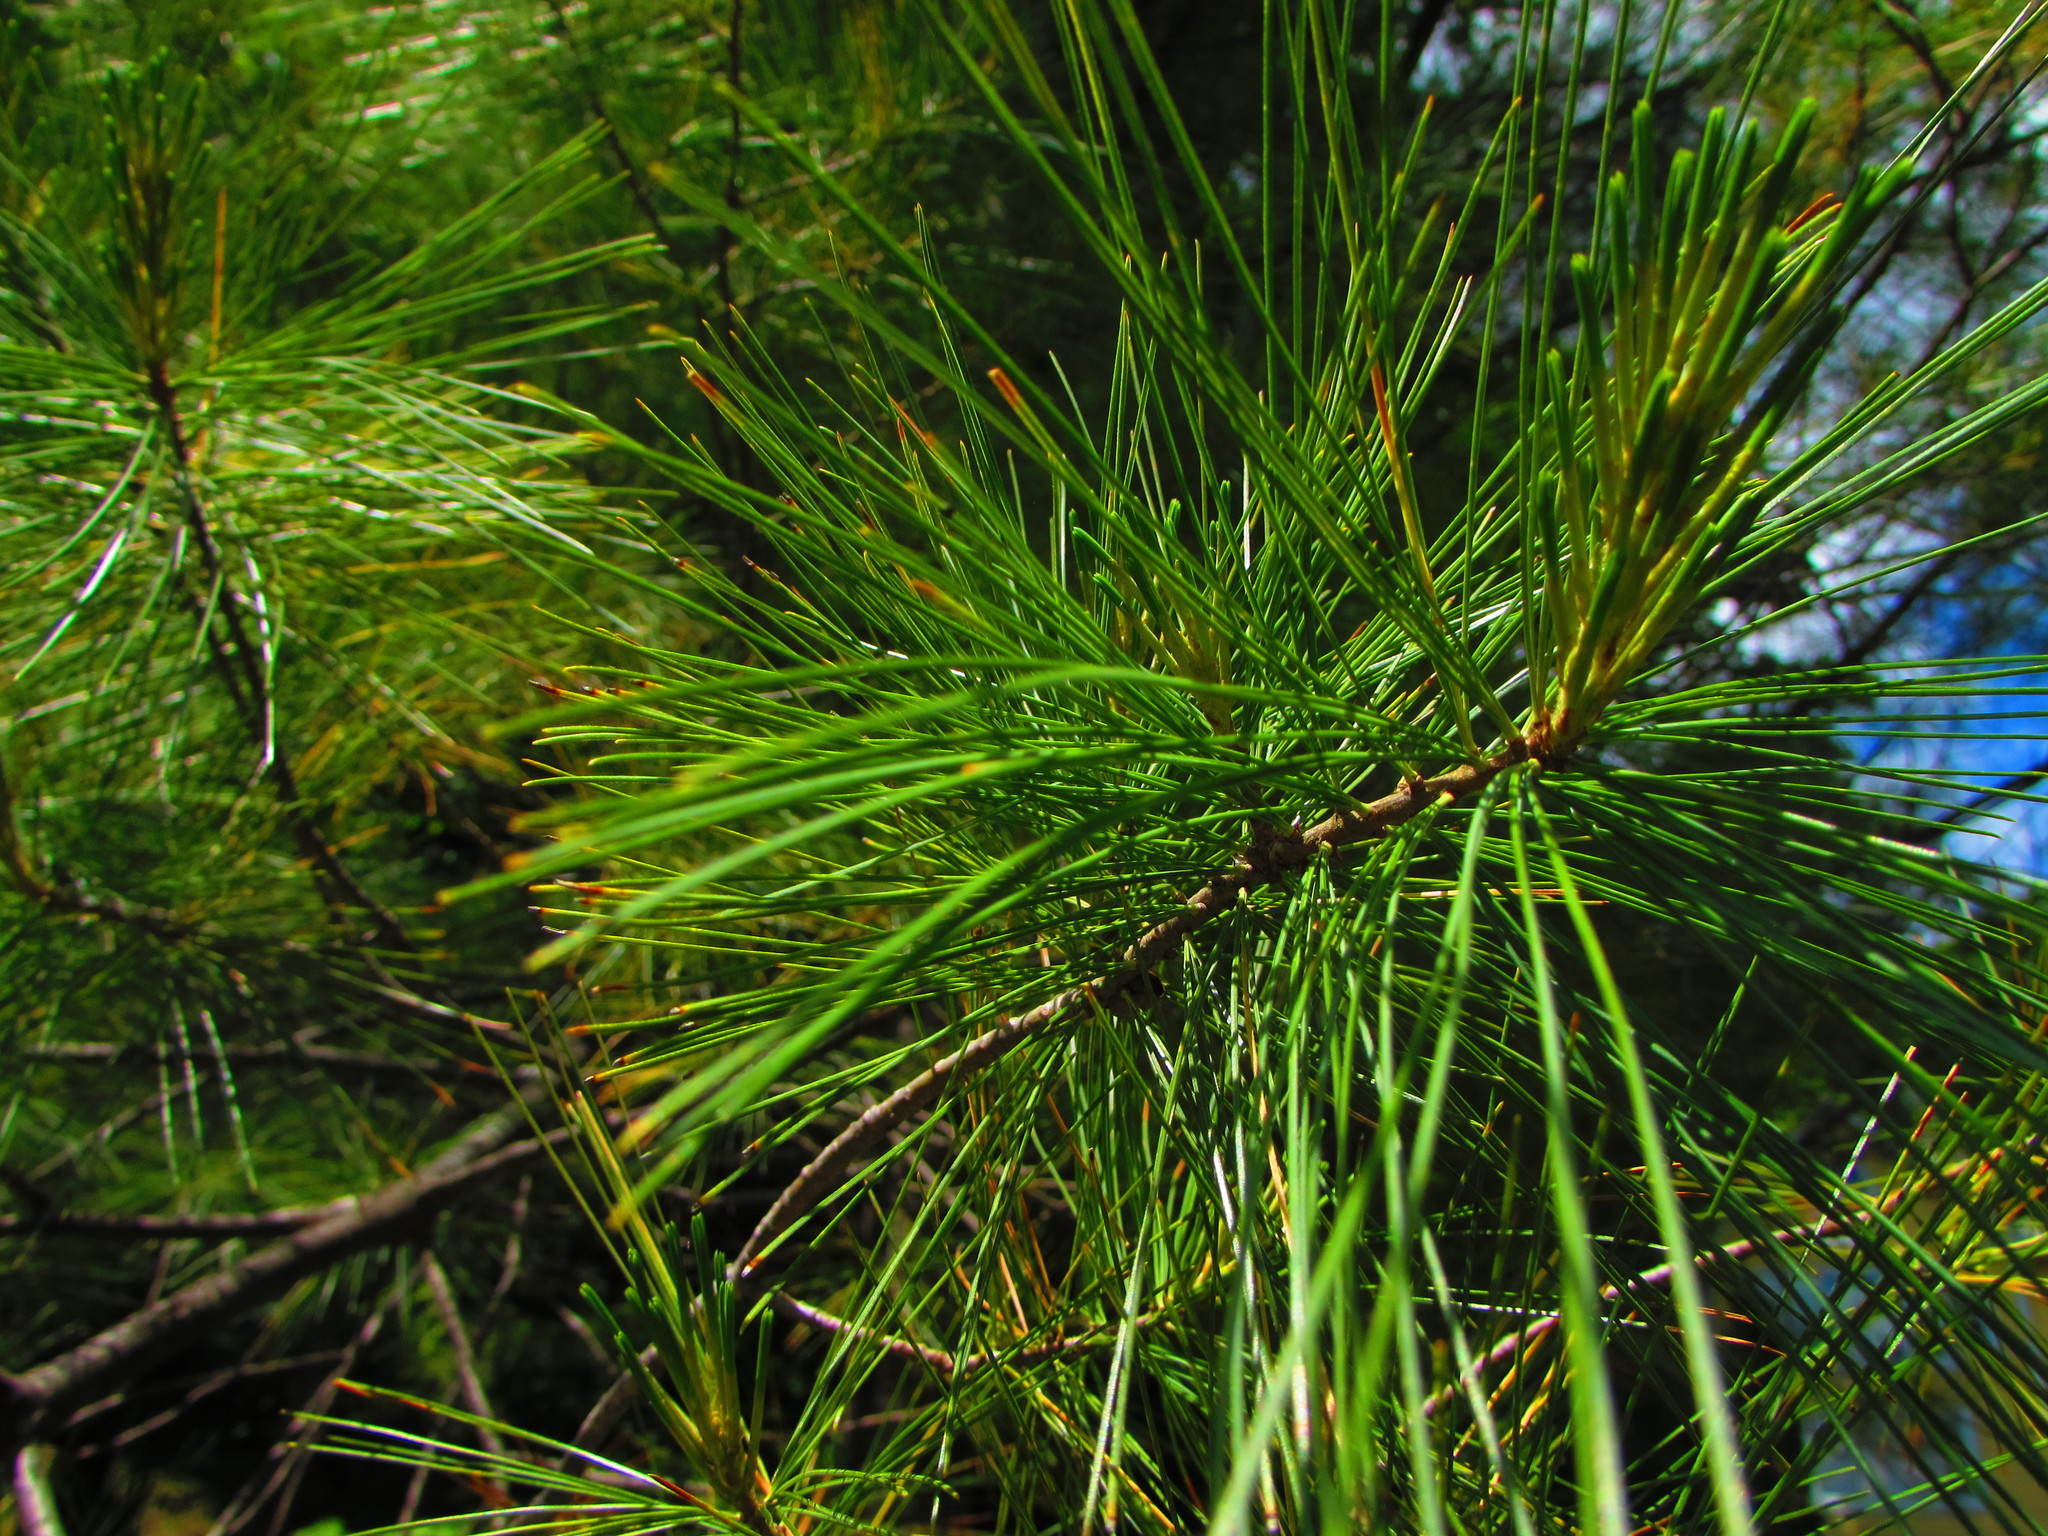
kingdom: Plantae
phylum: Tracheophyta
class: Pinopsida
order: Pinales
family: Pinaceae
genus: Pinus
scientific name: Pinus strobus
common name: Weymouth pine
